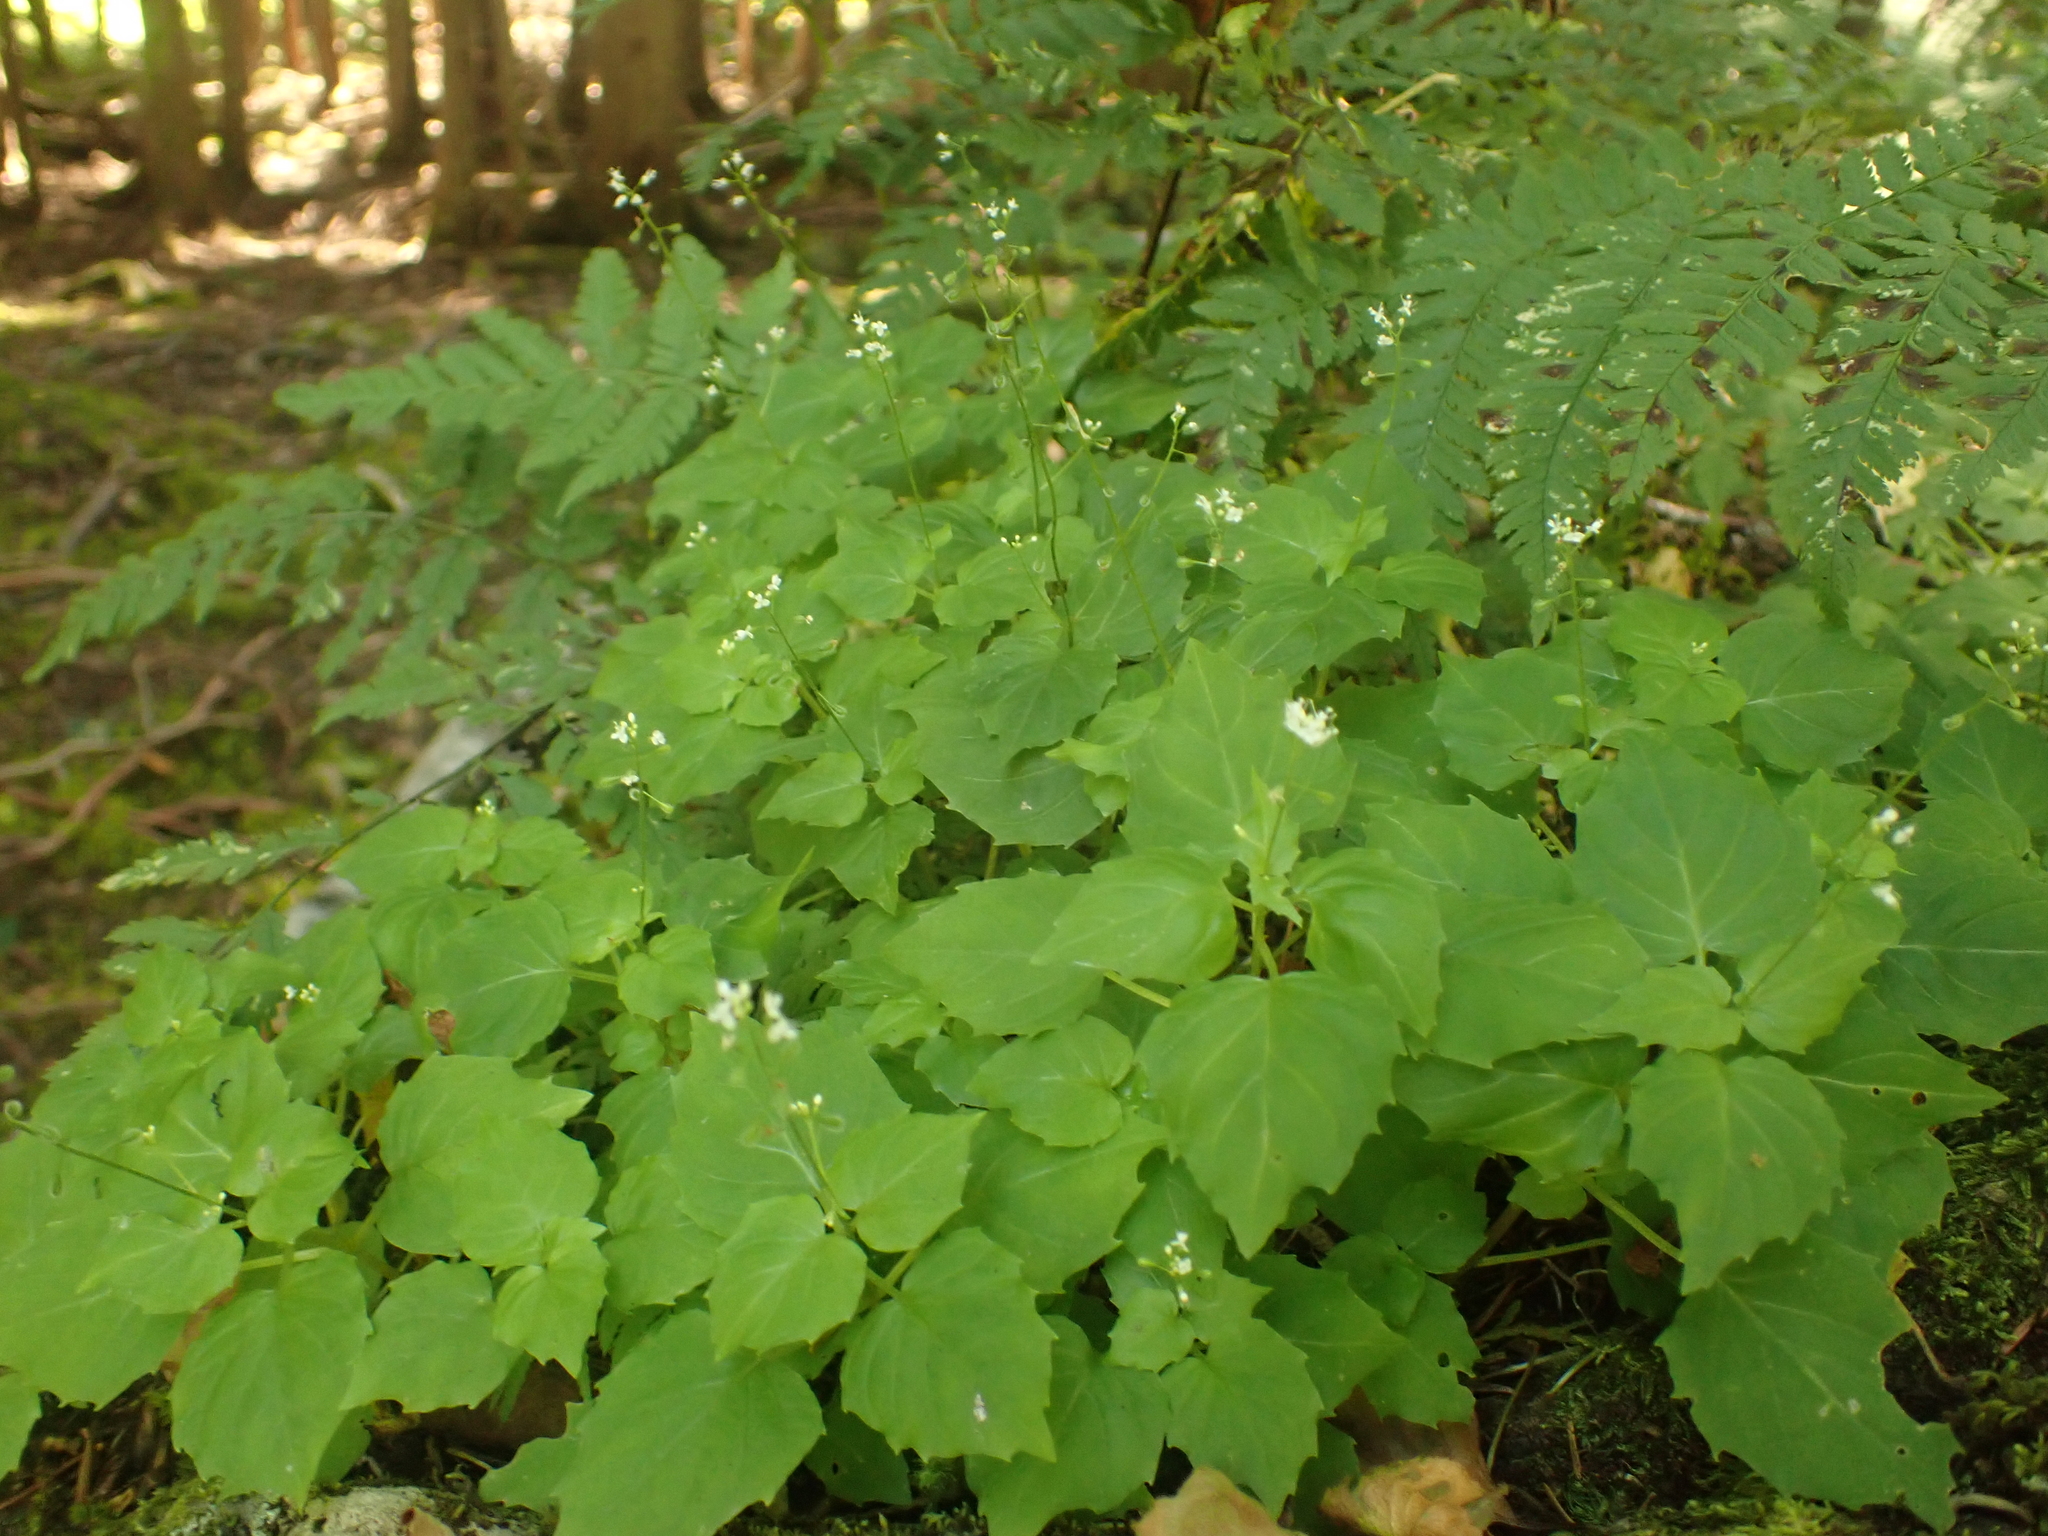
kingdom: Plantae
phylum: Tracheophyta
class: Magnoliopsida
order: Myrtales
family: Onagraceae
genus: Circaea
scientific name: Circaea alpina
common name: Alpine enchanter's-nightshade
